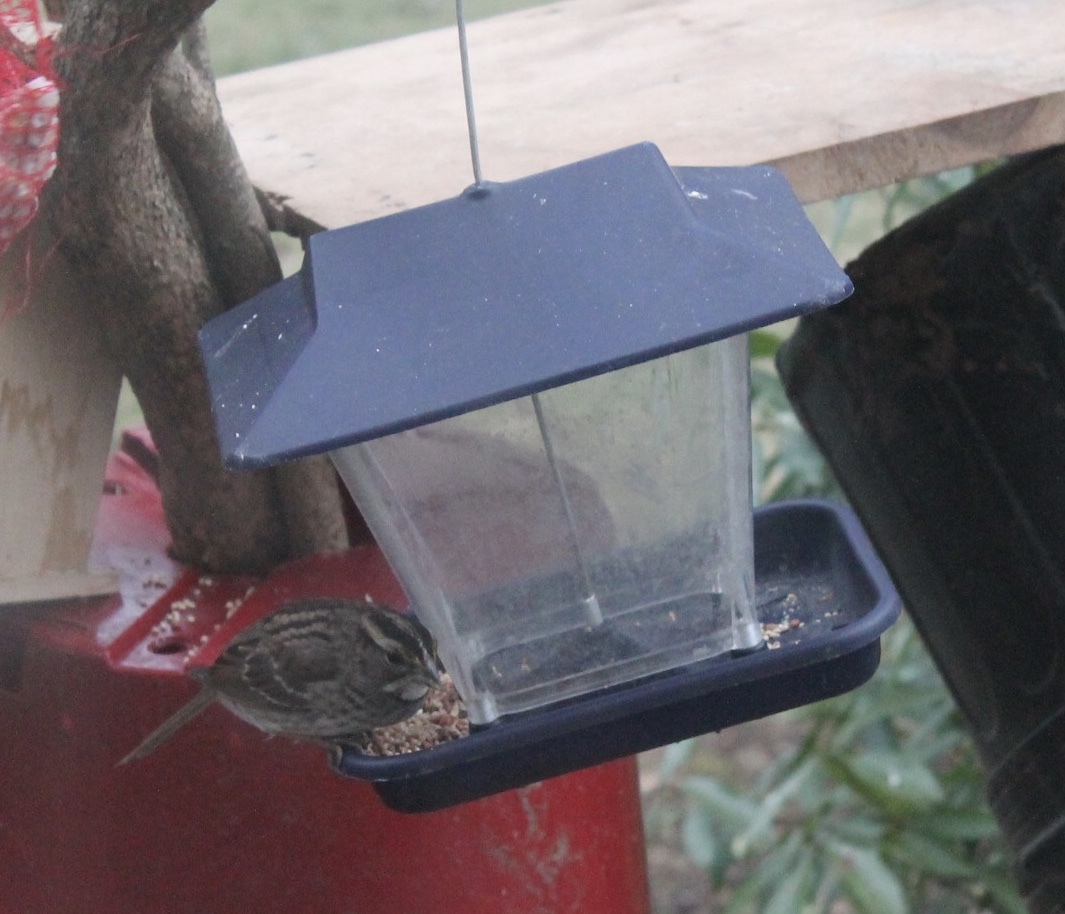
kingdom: Animalia
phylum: Chordata
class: Aves
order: Passeriformes
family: Passerellidae
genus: Zonotrichia
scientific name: Zonotrichia albicollis
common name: White-throated sparrow
